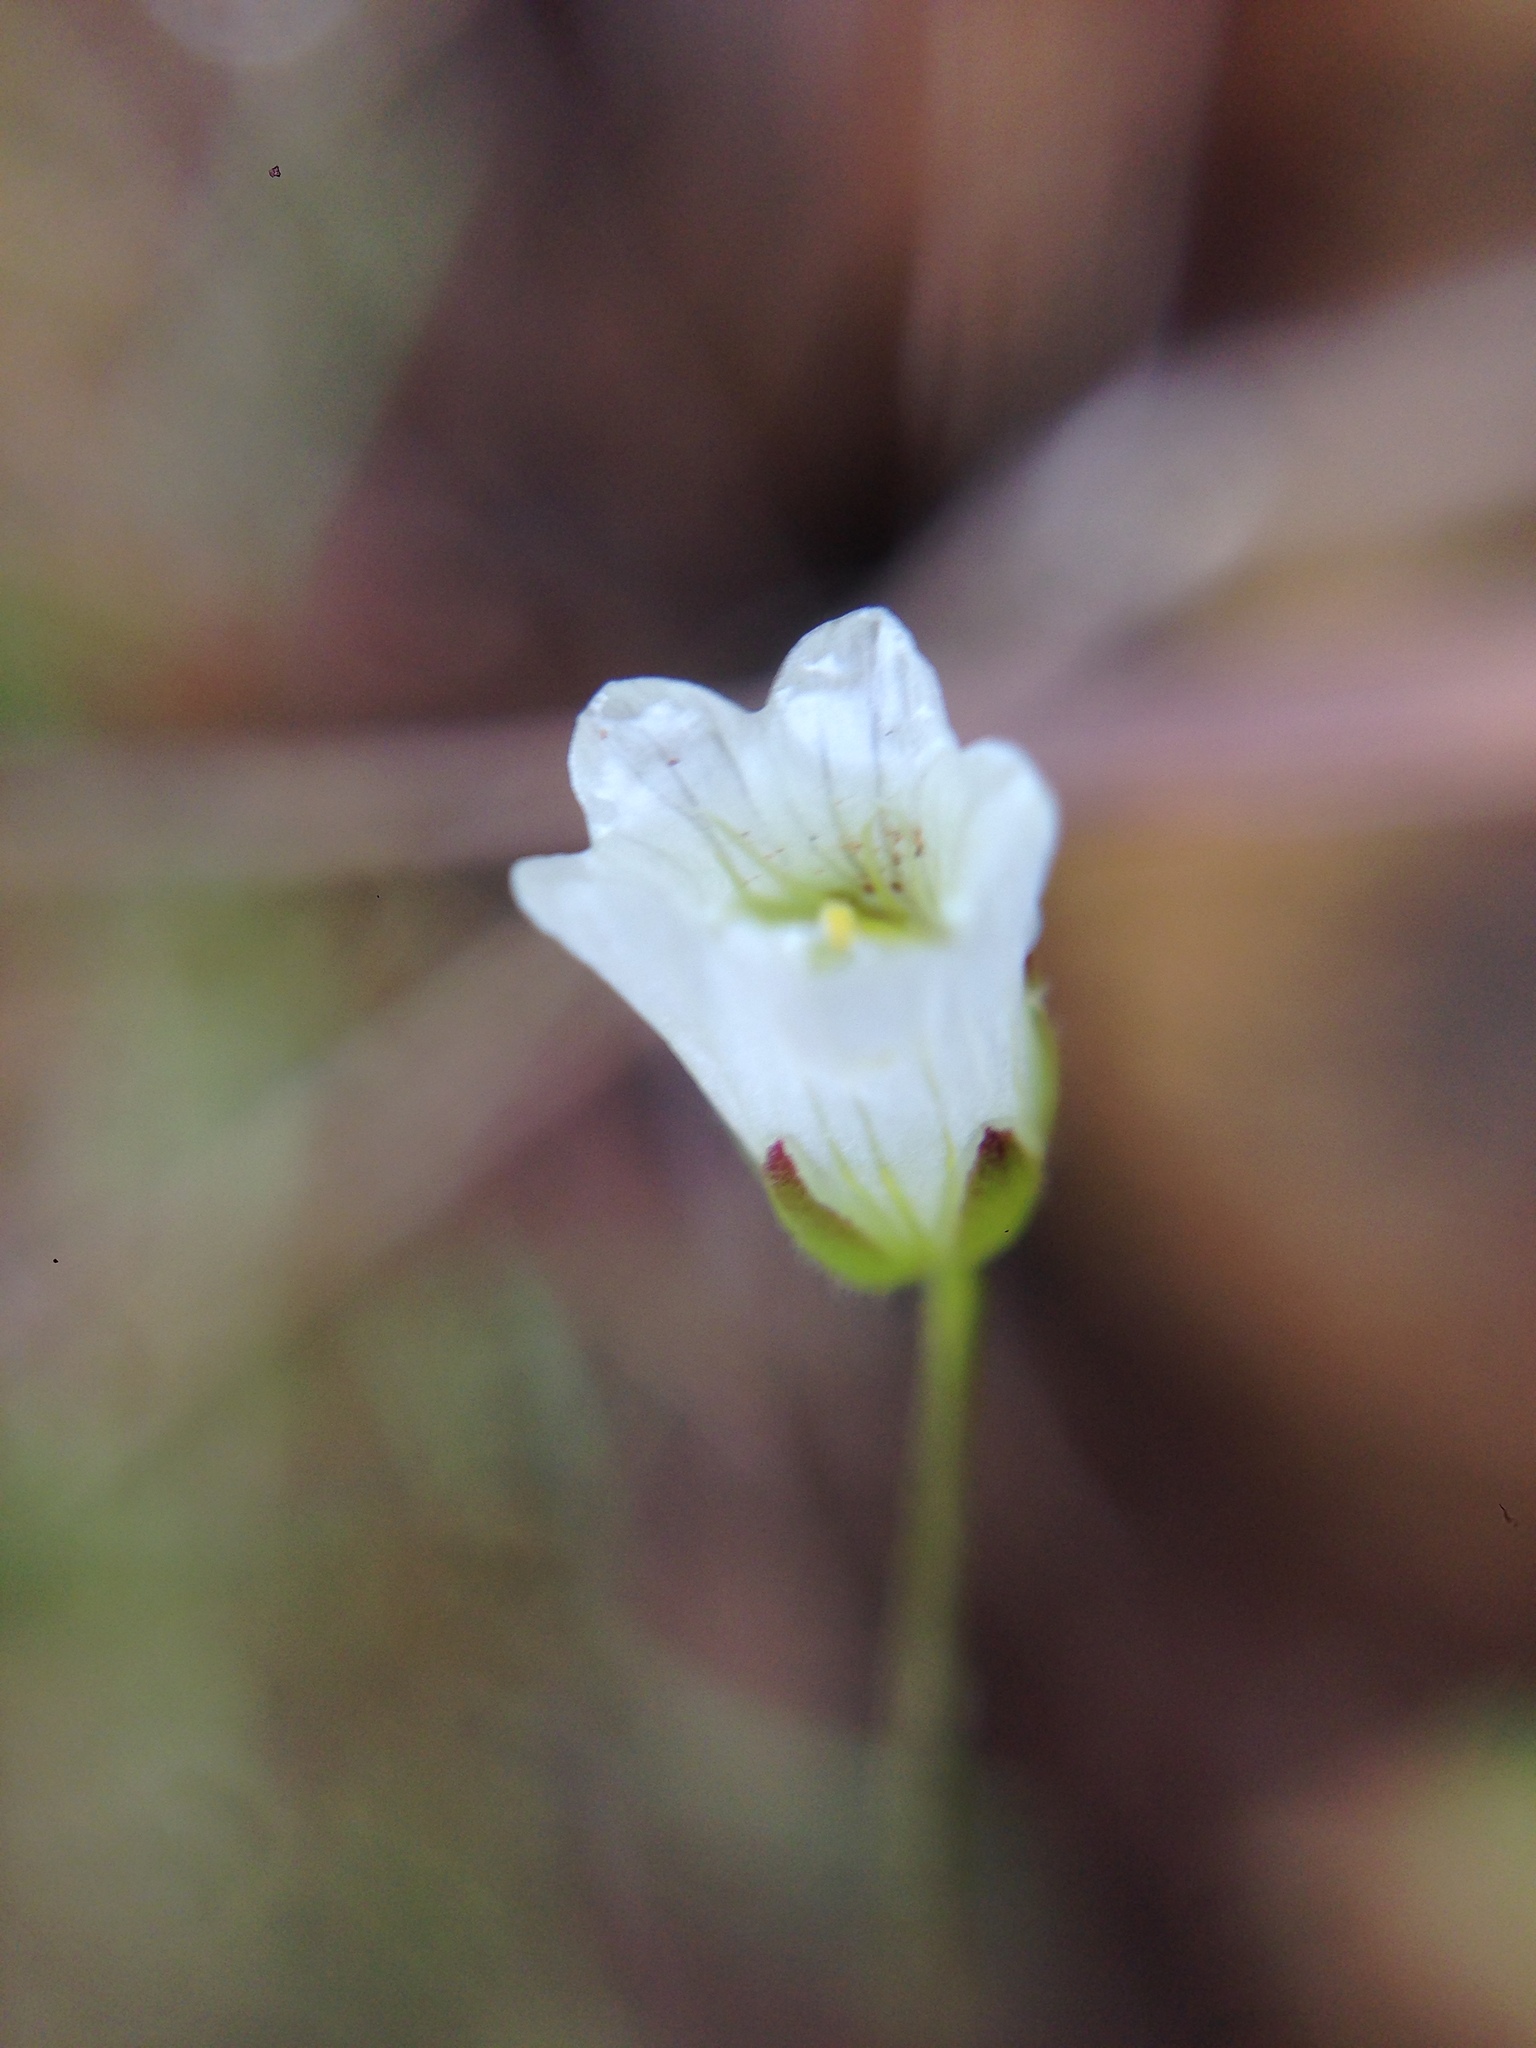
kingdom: Plantae
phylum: Tracheophyta
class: Magnoliopsida
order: Malpighiales
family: Linaceae
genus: Hesperolinon
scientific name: Hesperolinon micranthum
